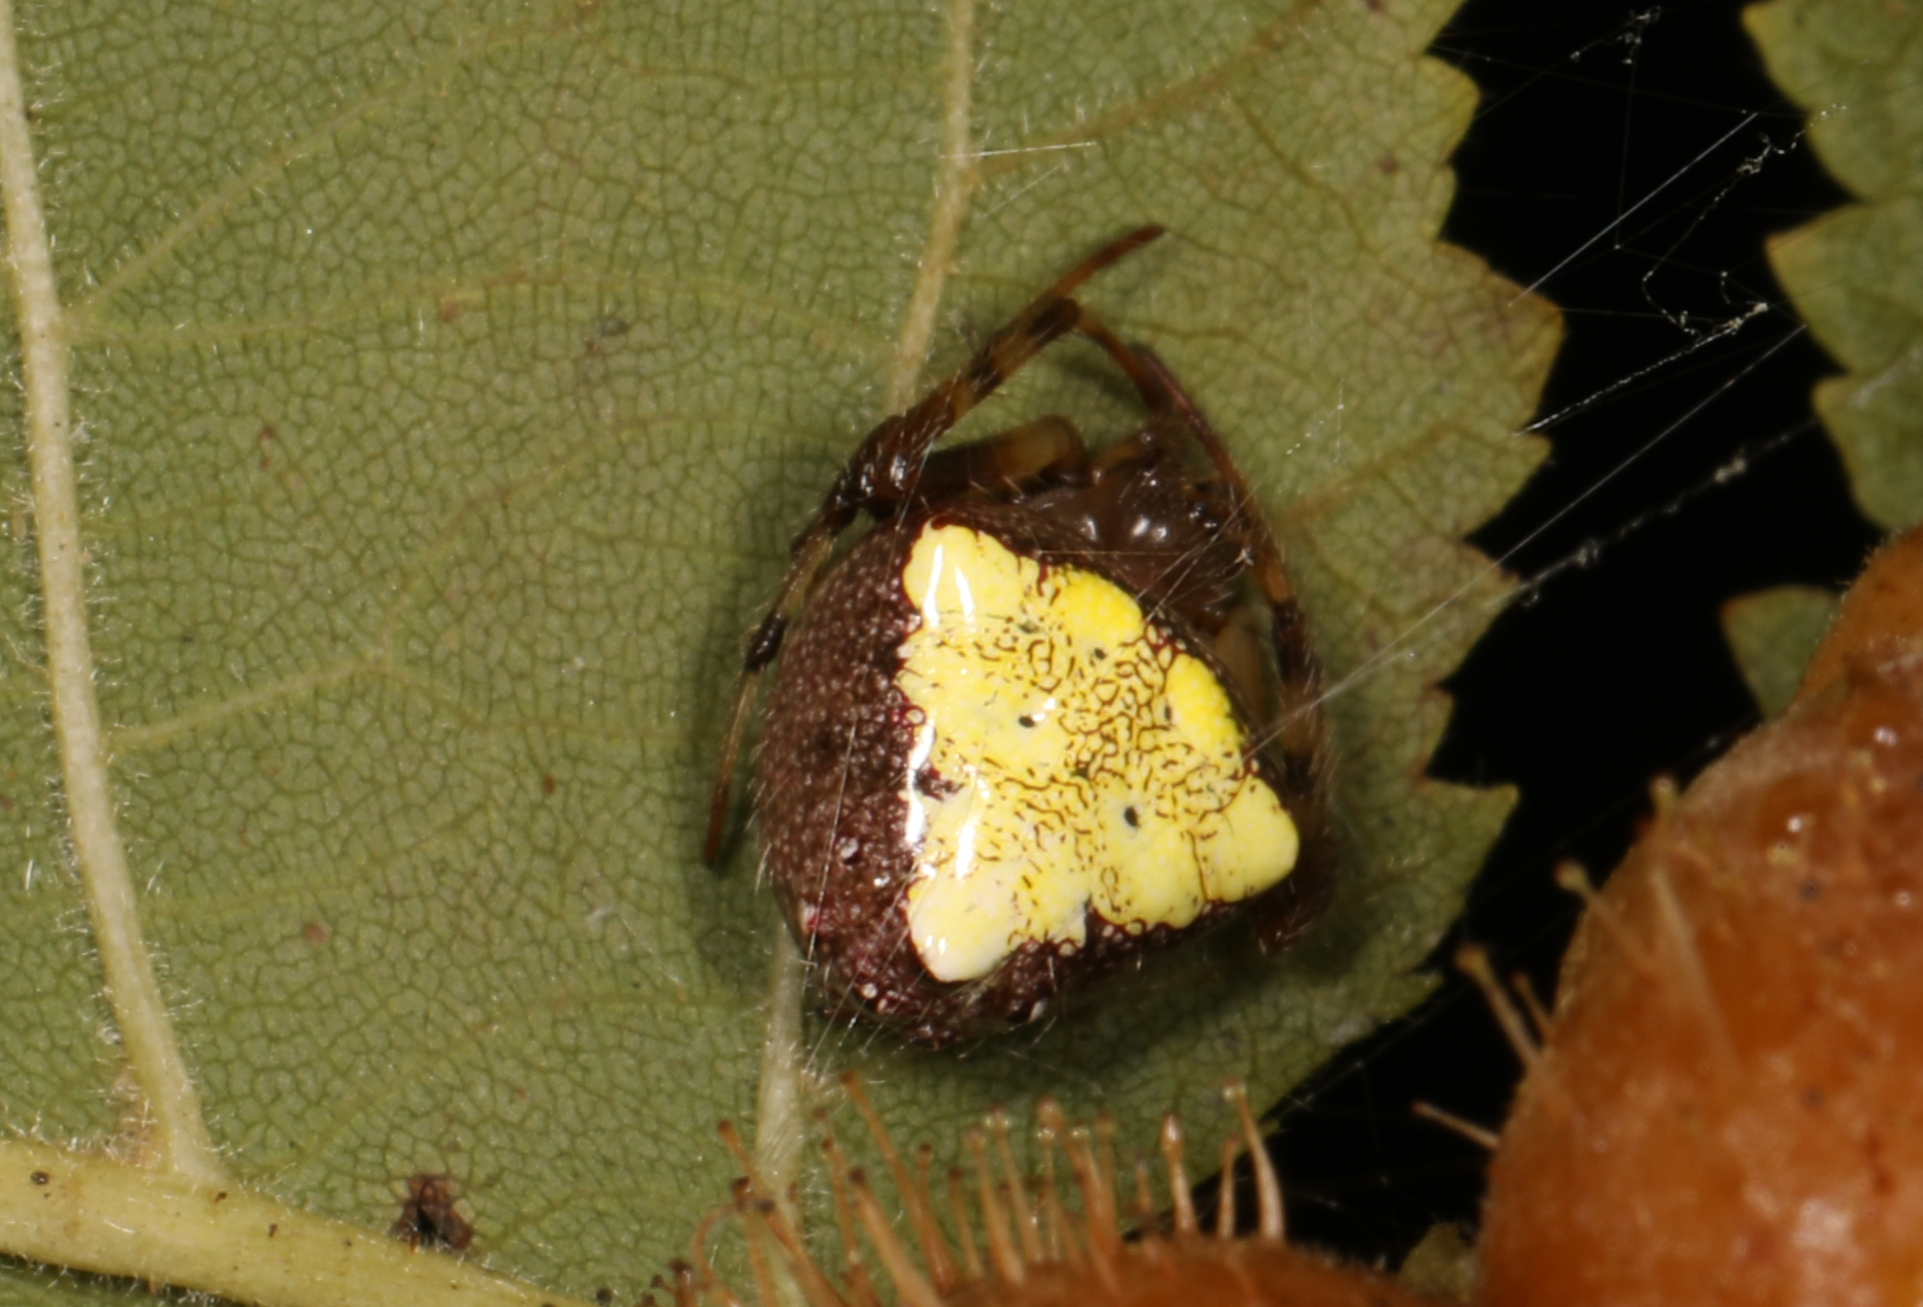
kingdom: Animalia
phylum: Arthropoda
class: Arachnida
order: Araneae
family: Araneidae
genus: Verrucosa
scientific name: Verrucosa arenata
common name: Orb weavers
